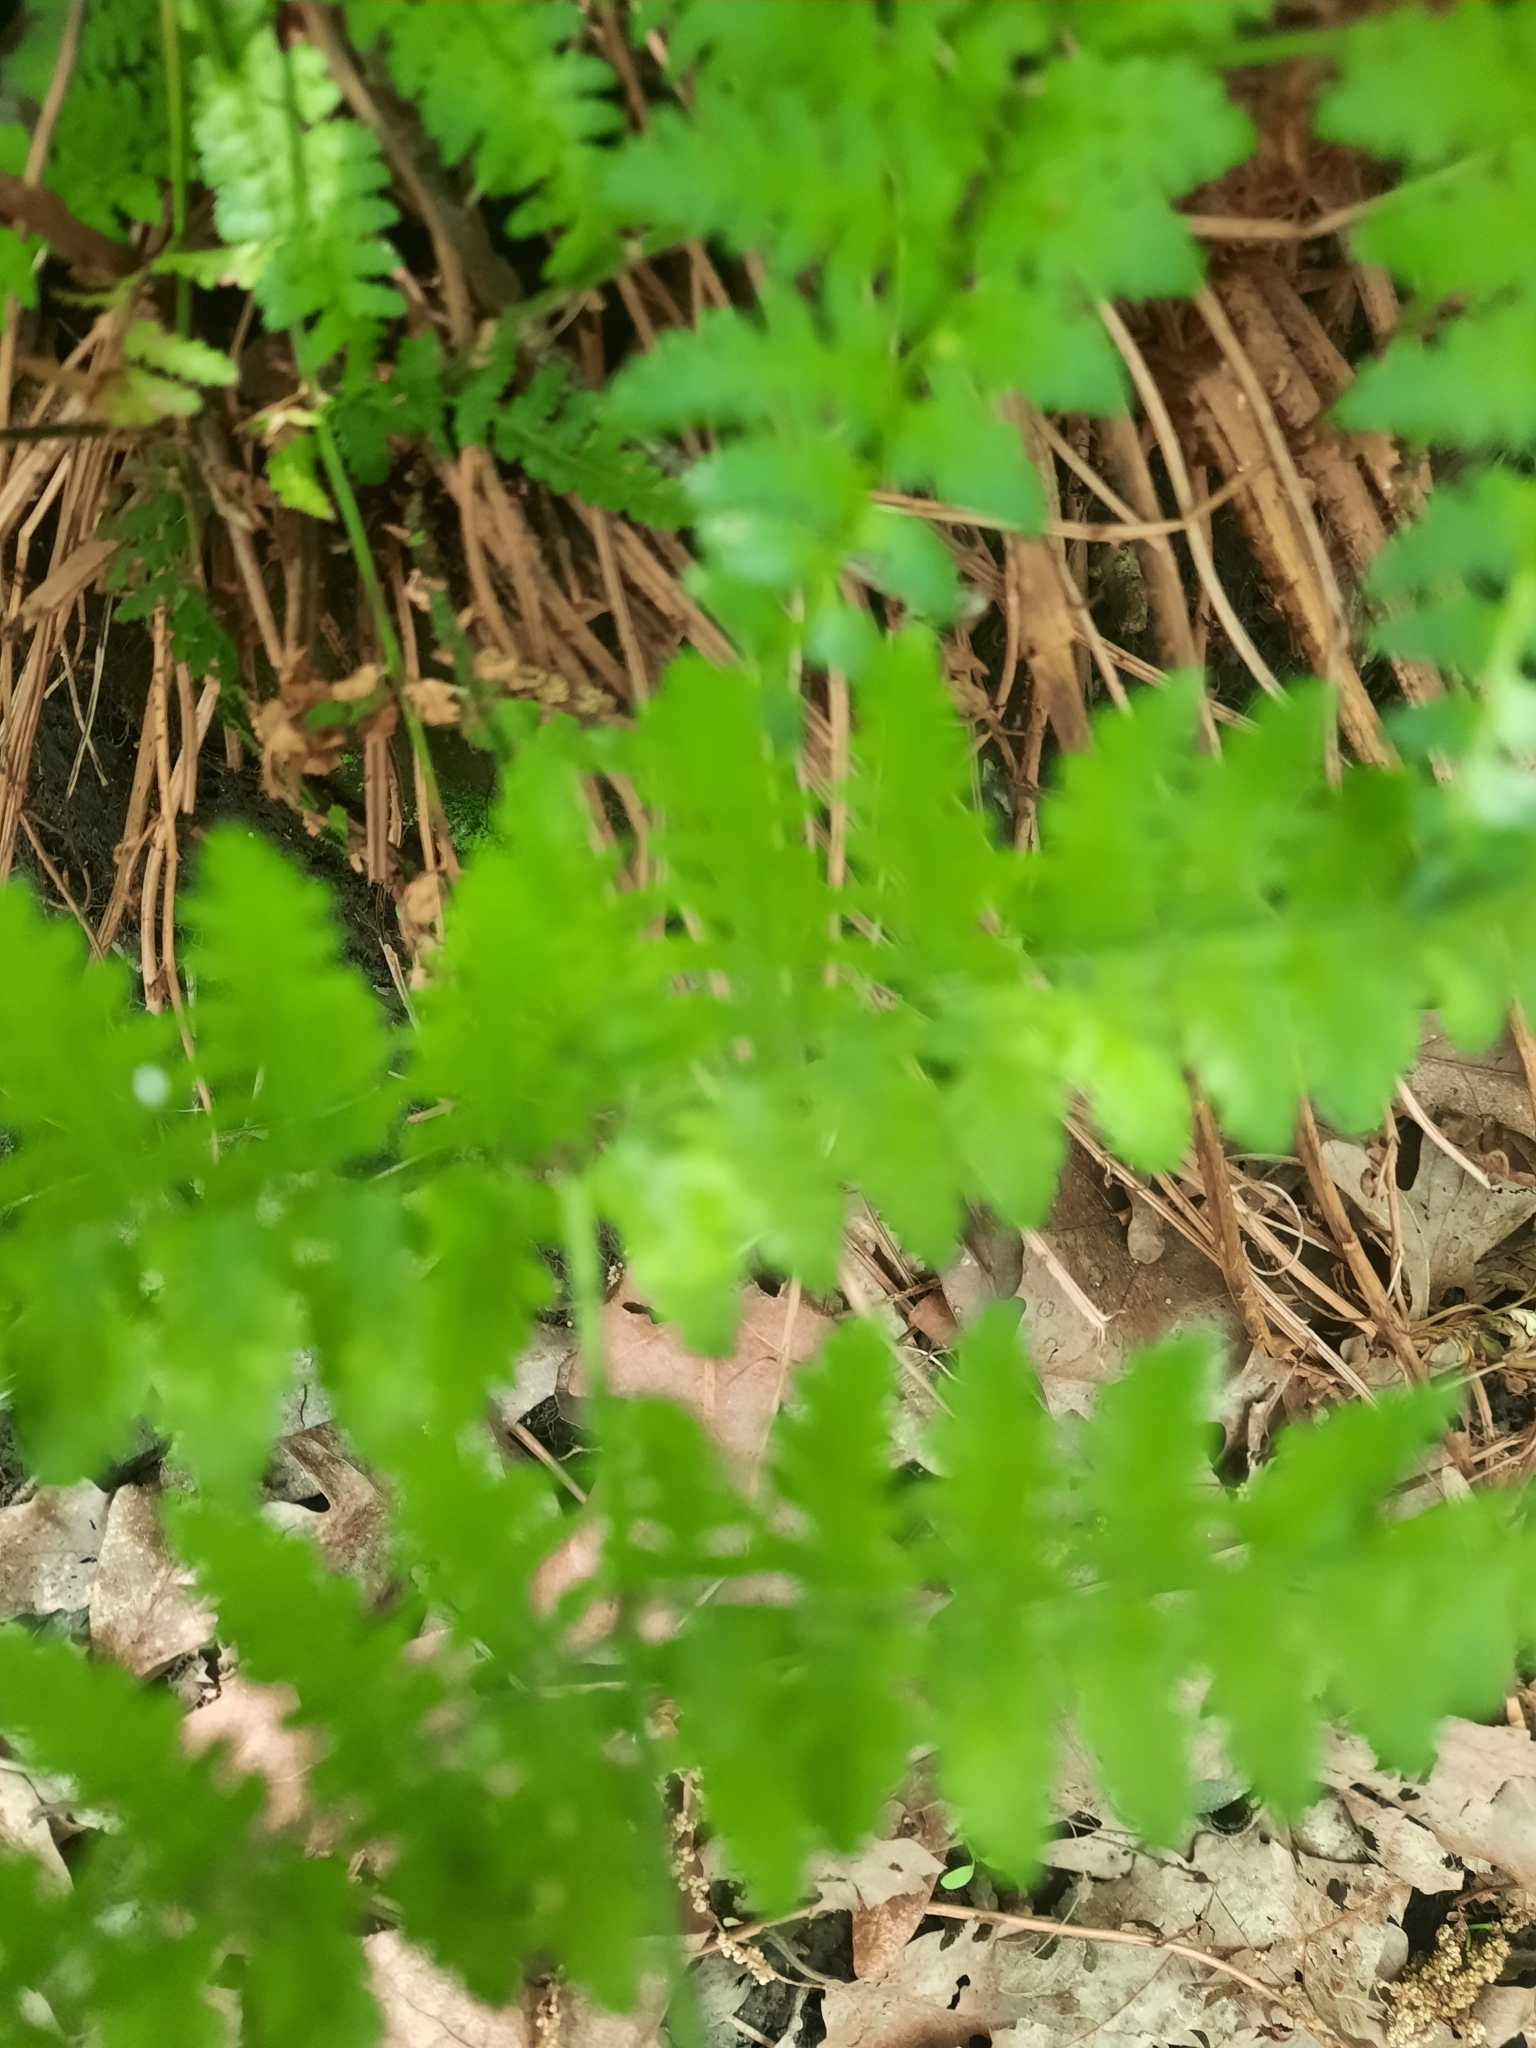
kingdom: Plantae
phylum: Tracheophyta
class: Polypodiopsida
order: Polypodiales
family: Dryopteridaceae
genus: Dryopteris
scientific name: Dryopteris intermedia
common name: Evergreen wood fern
